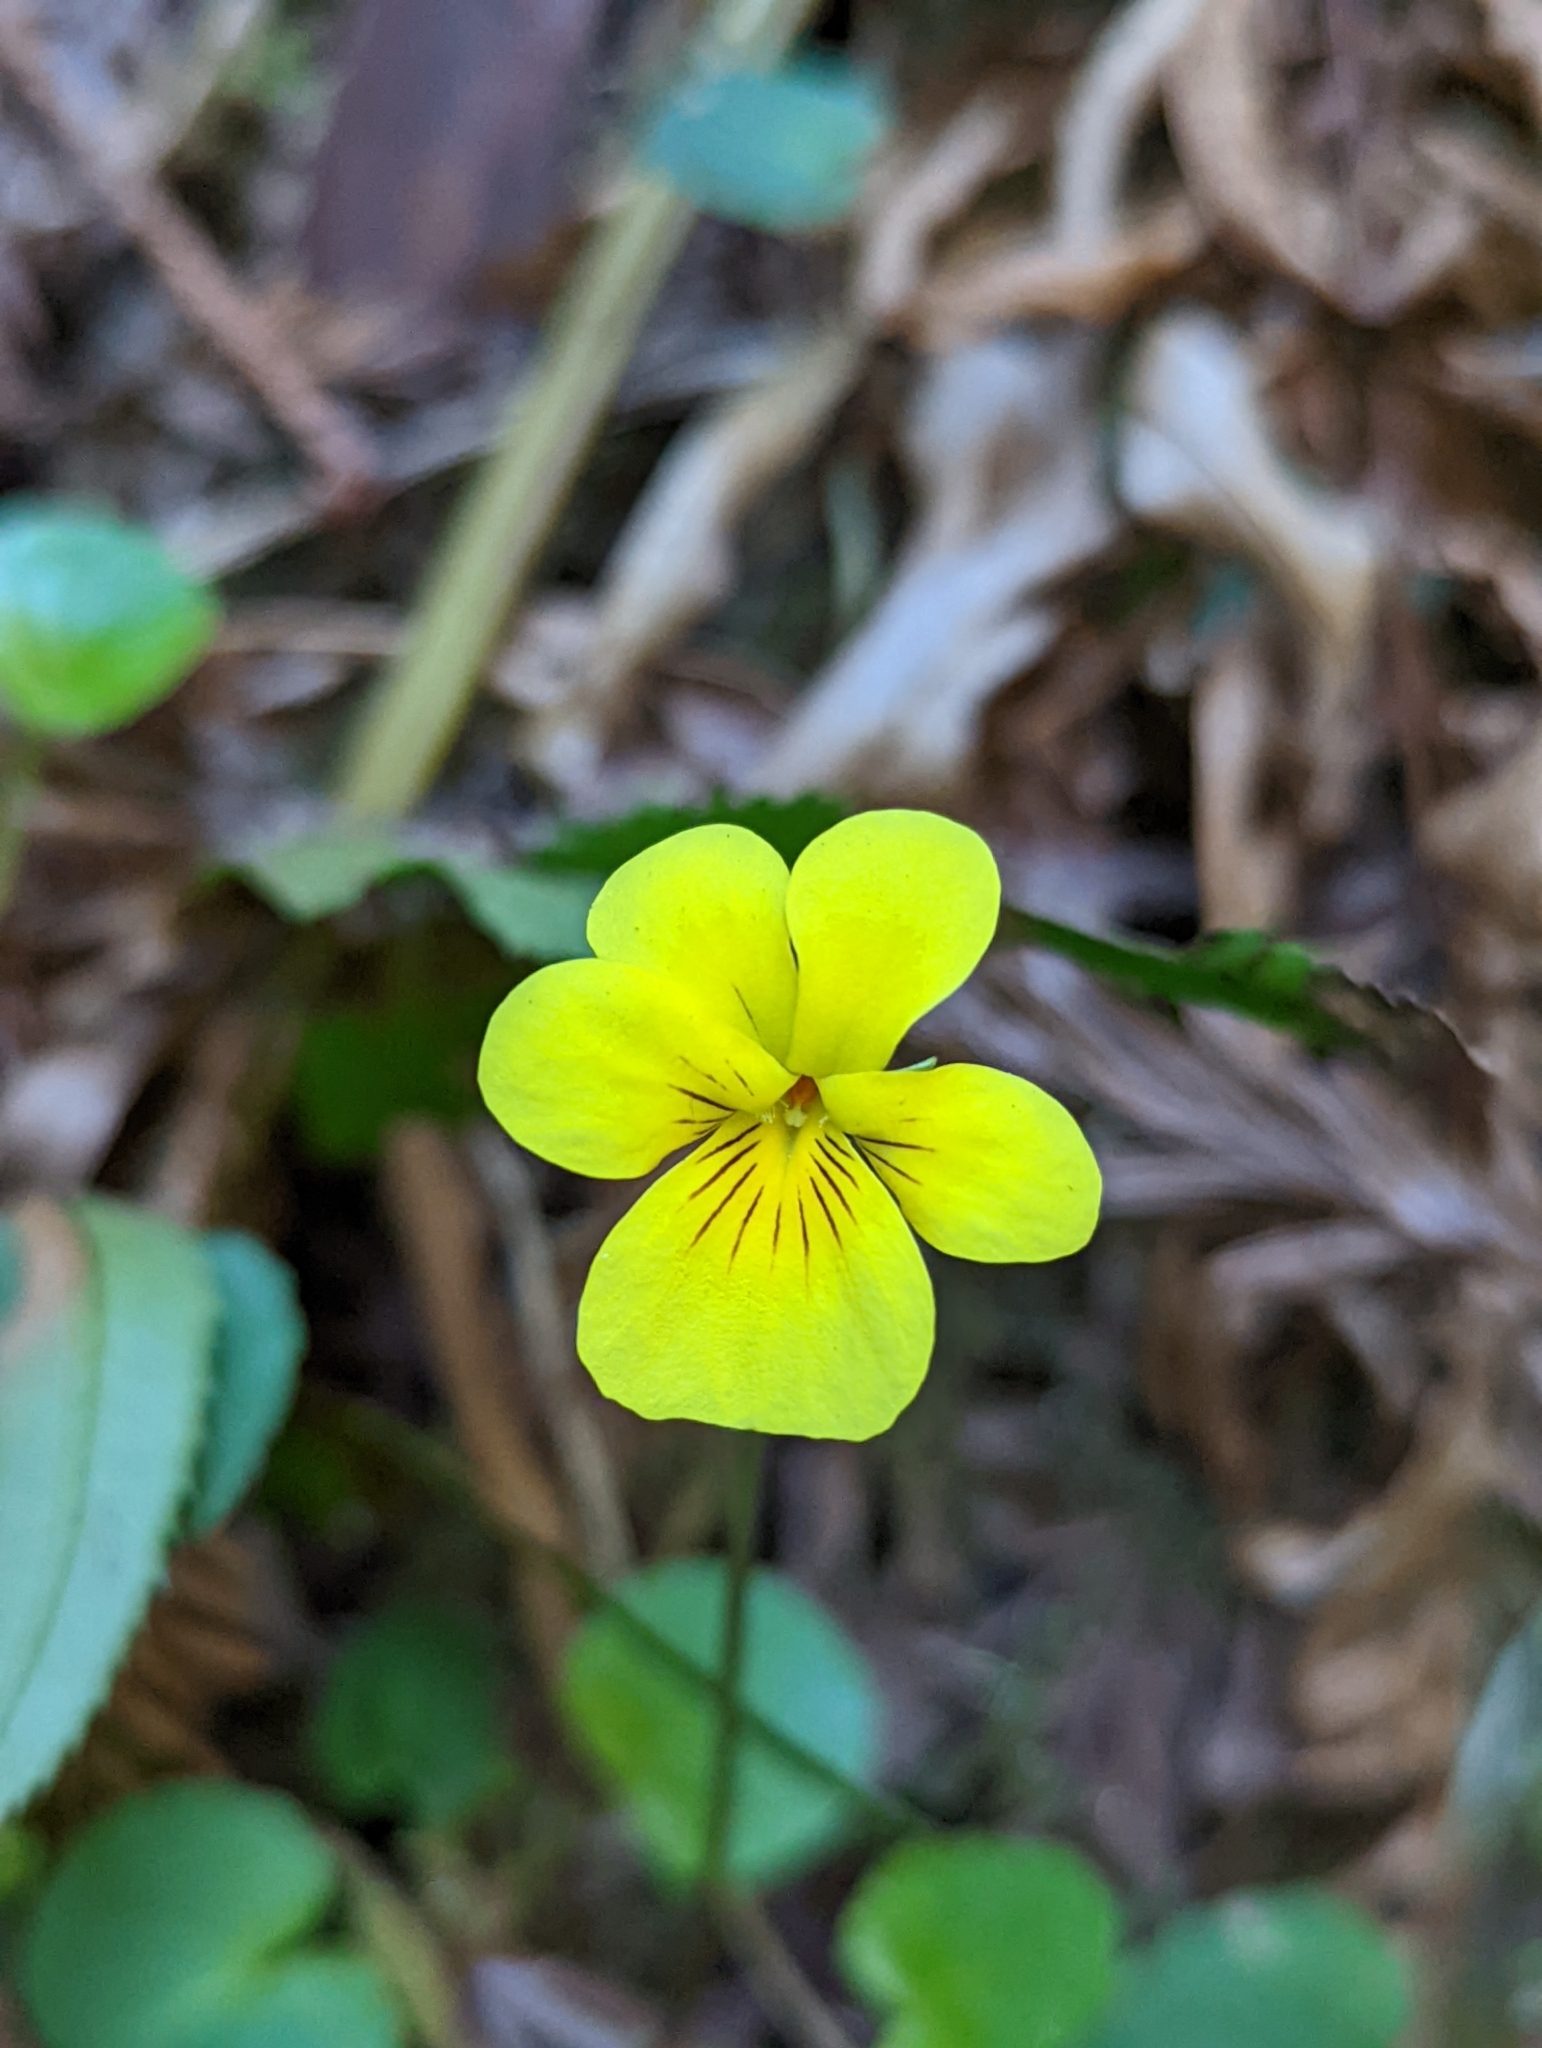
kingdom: Plantae
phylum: Tracheophyta
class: Magnoliopsida
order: Malpighiales
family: Violaceae
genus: Viola
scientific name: Viola sempervirens
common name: Evergreen violet
